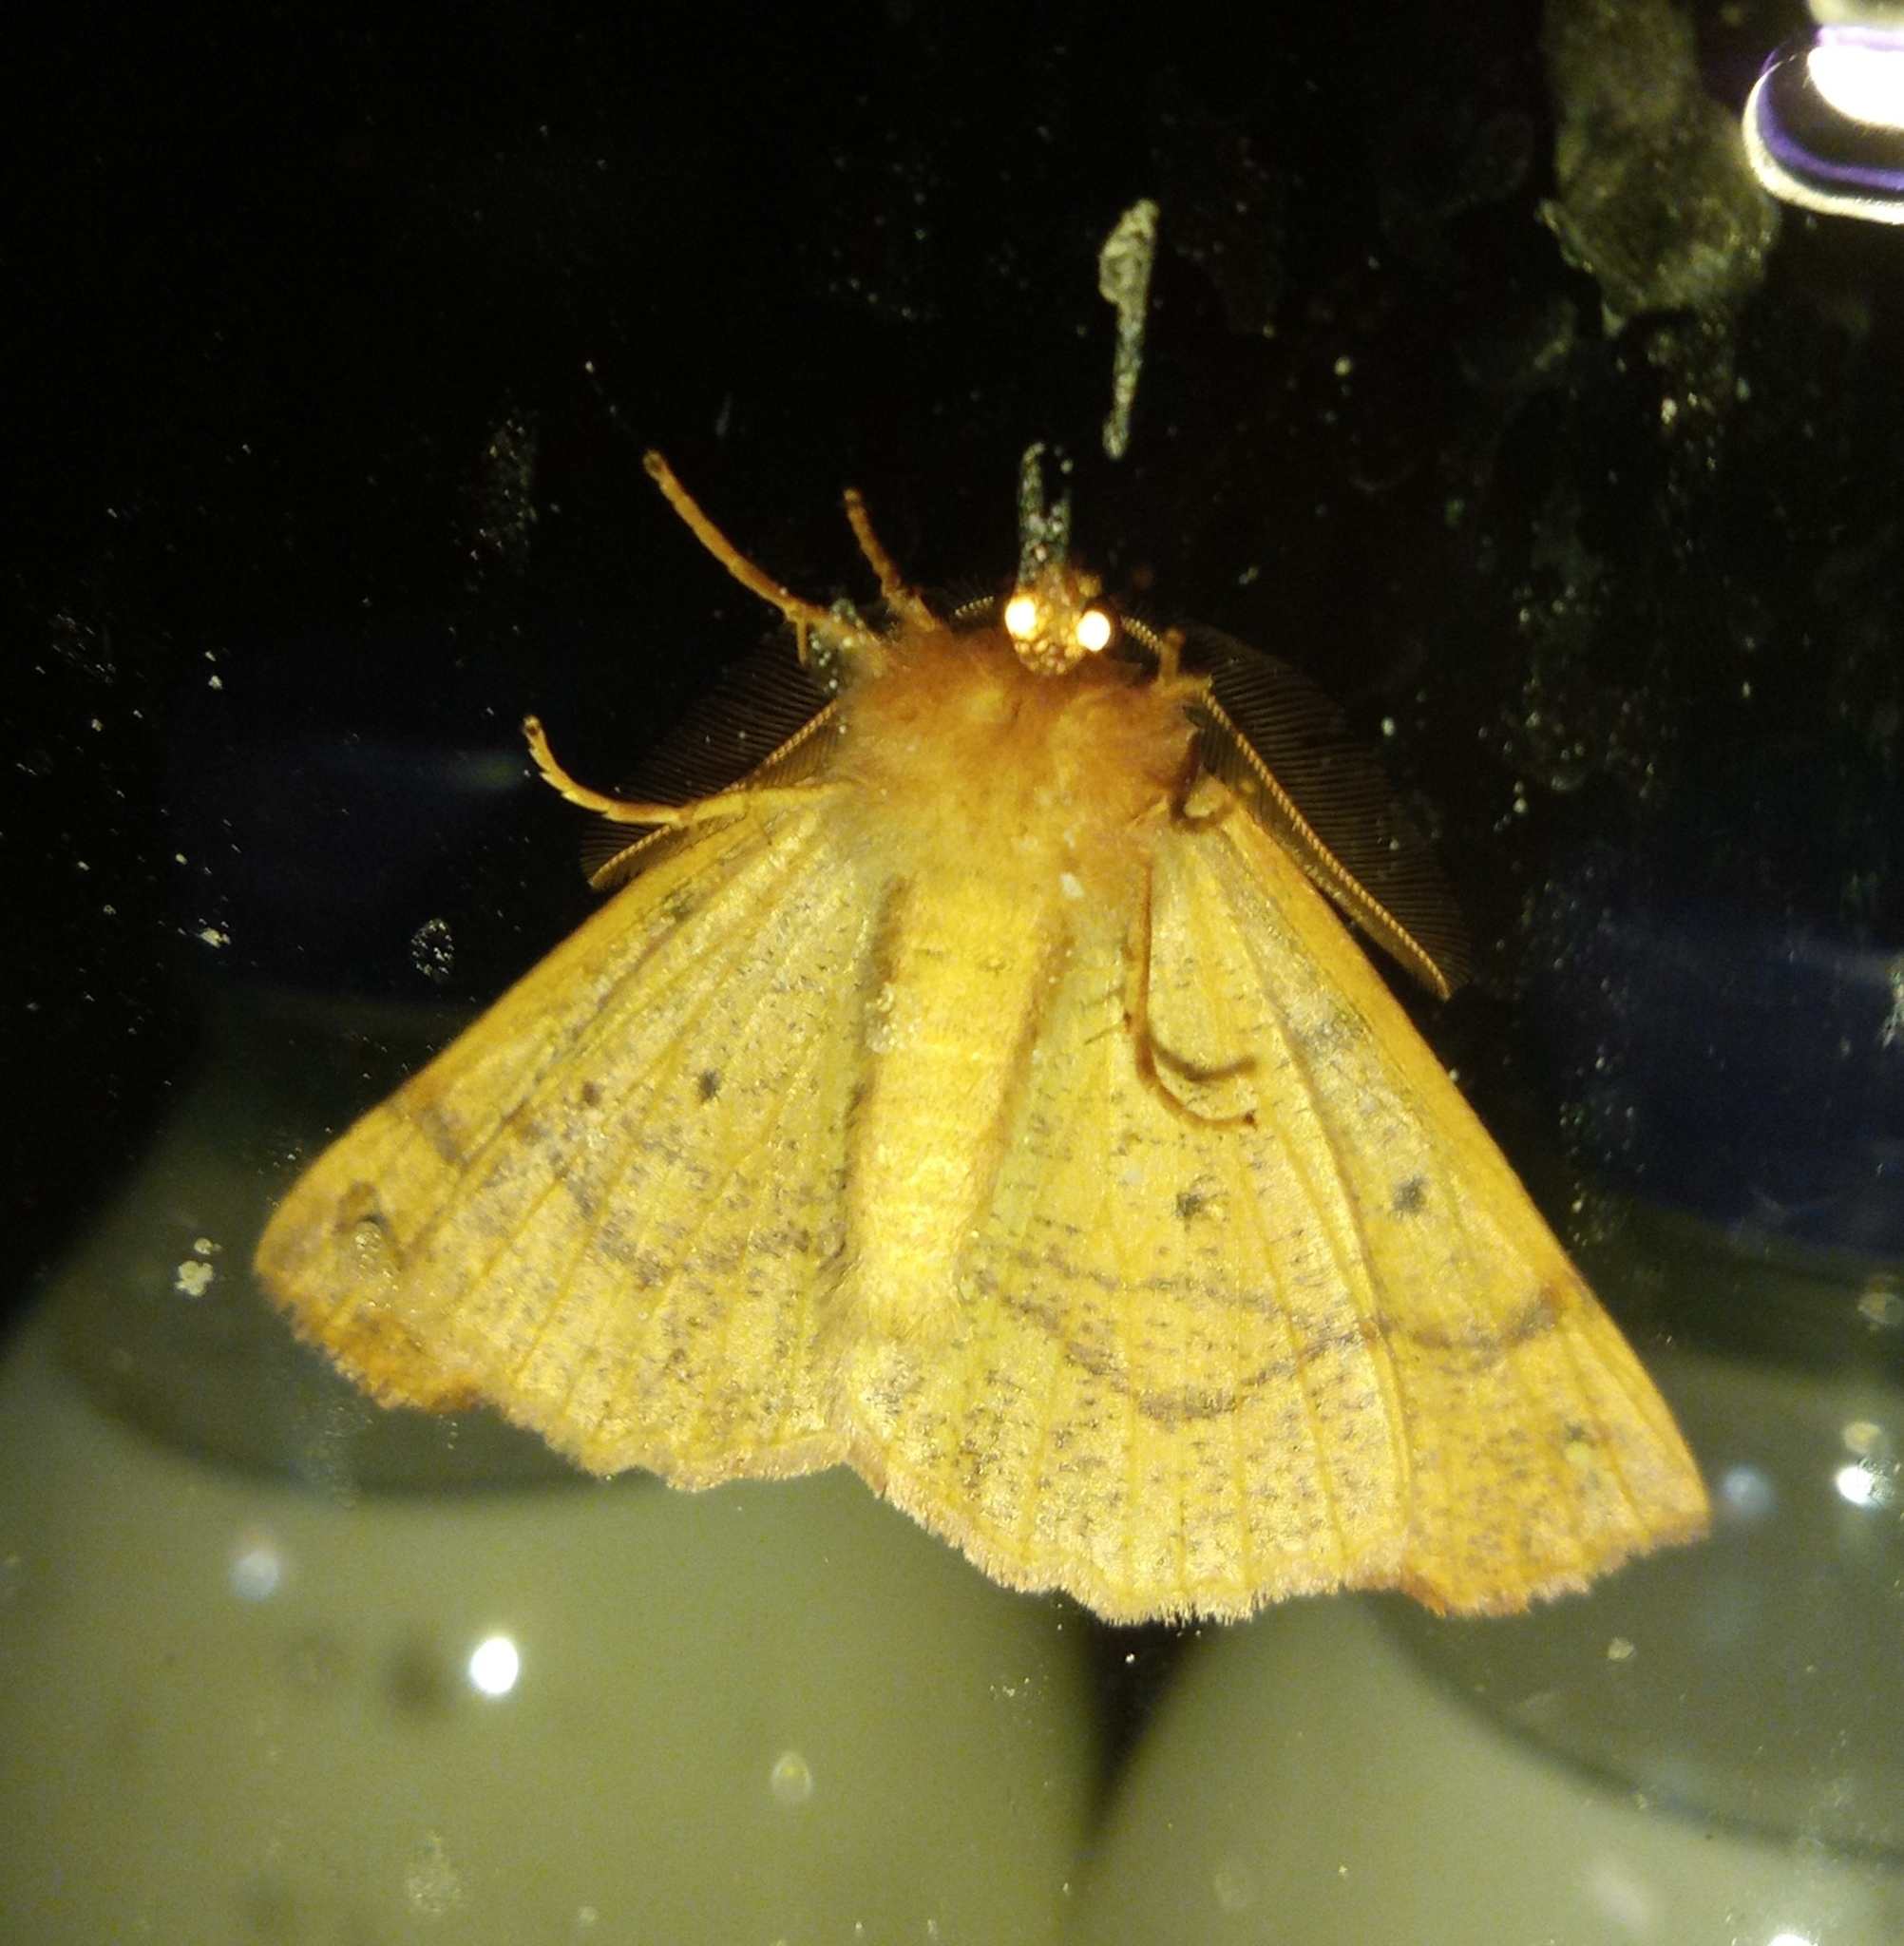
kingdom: Animalia
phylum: Arthropoda
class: Insecta
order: Lepidoptera
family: Geometridae
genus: Colotois
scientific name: Colotois pennaria
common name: Feathered thorn
